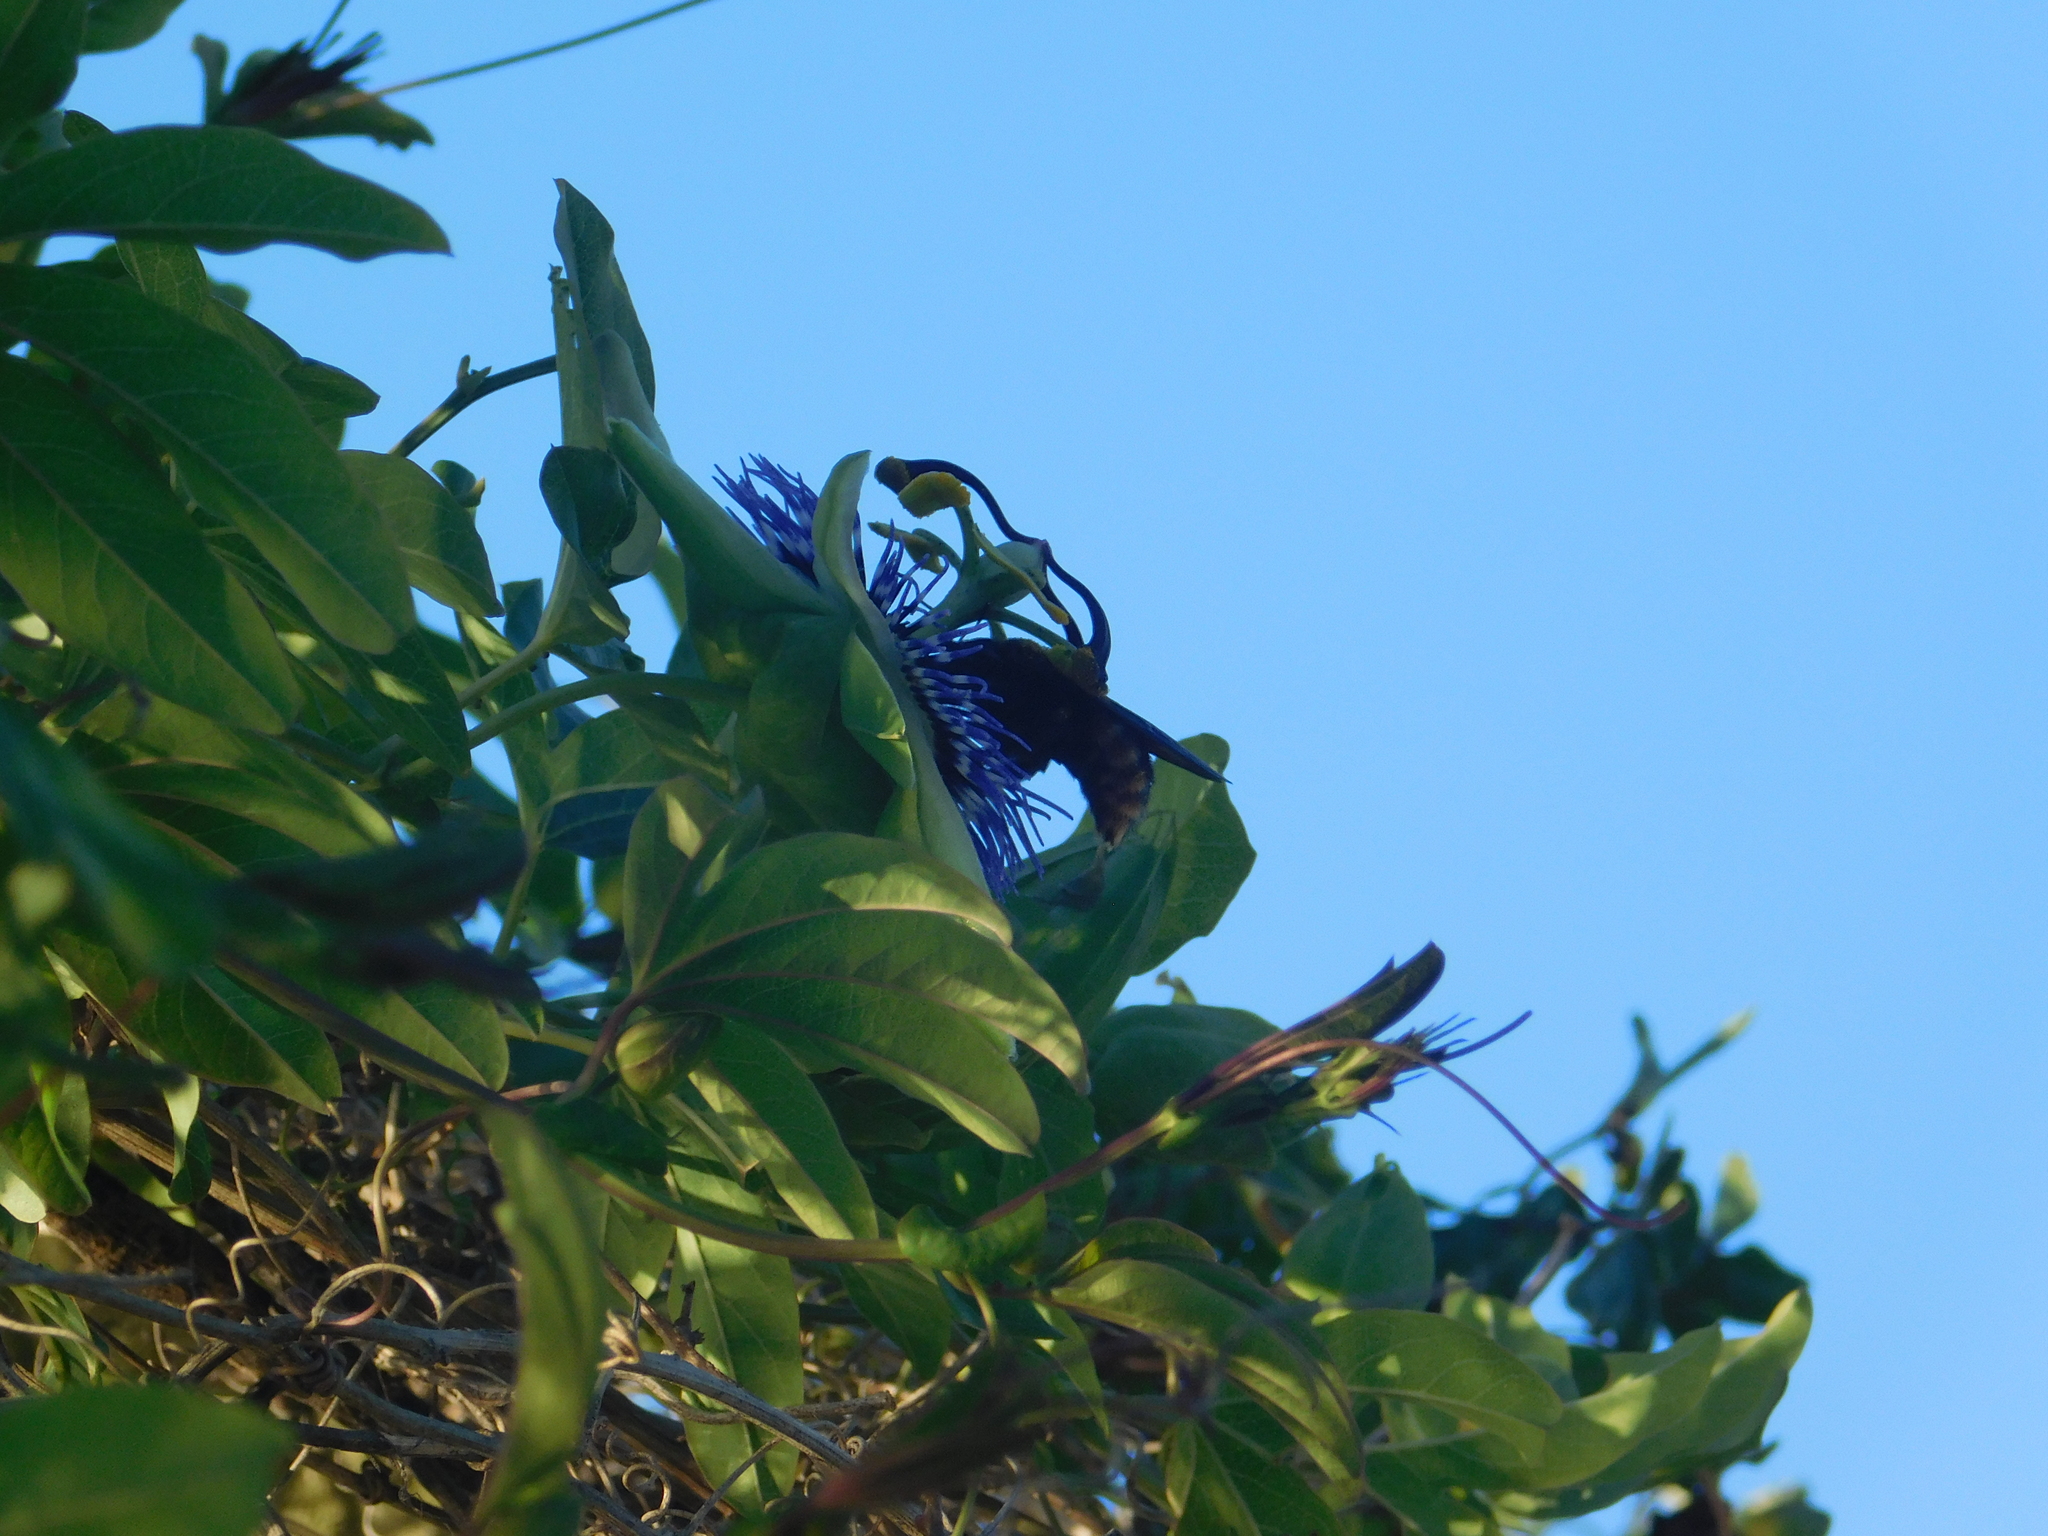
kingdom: Animalia
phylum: Arthropoda
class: Insecta
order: Hymenoptera
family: Apidae
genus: Xylocopa
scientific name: Xylocopa augusti
